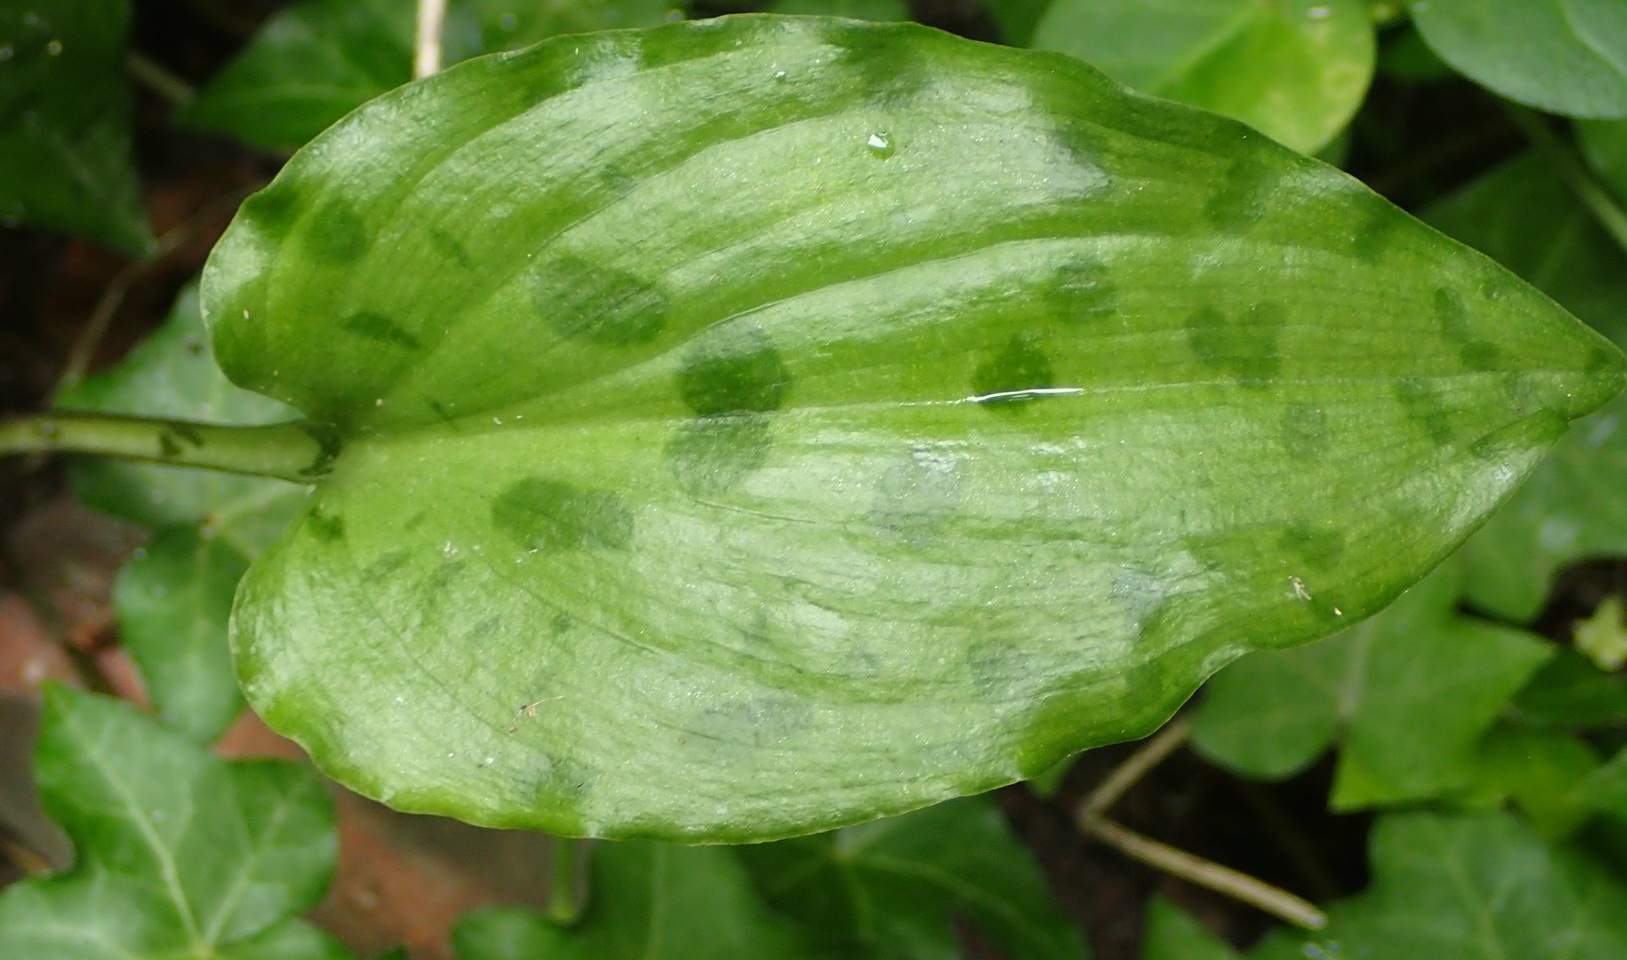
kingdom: Plantae
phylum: Tracheophyta
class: Liliopsida
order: Asparagales
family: Asparagaceae
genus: Drimiopsis
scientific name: Drimiopsis maculata
